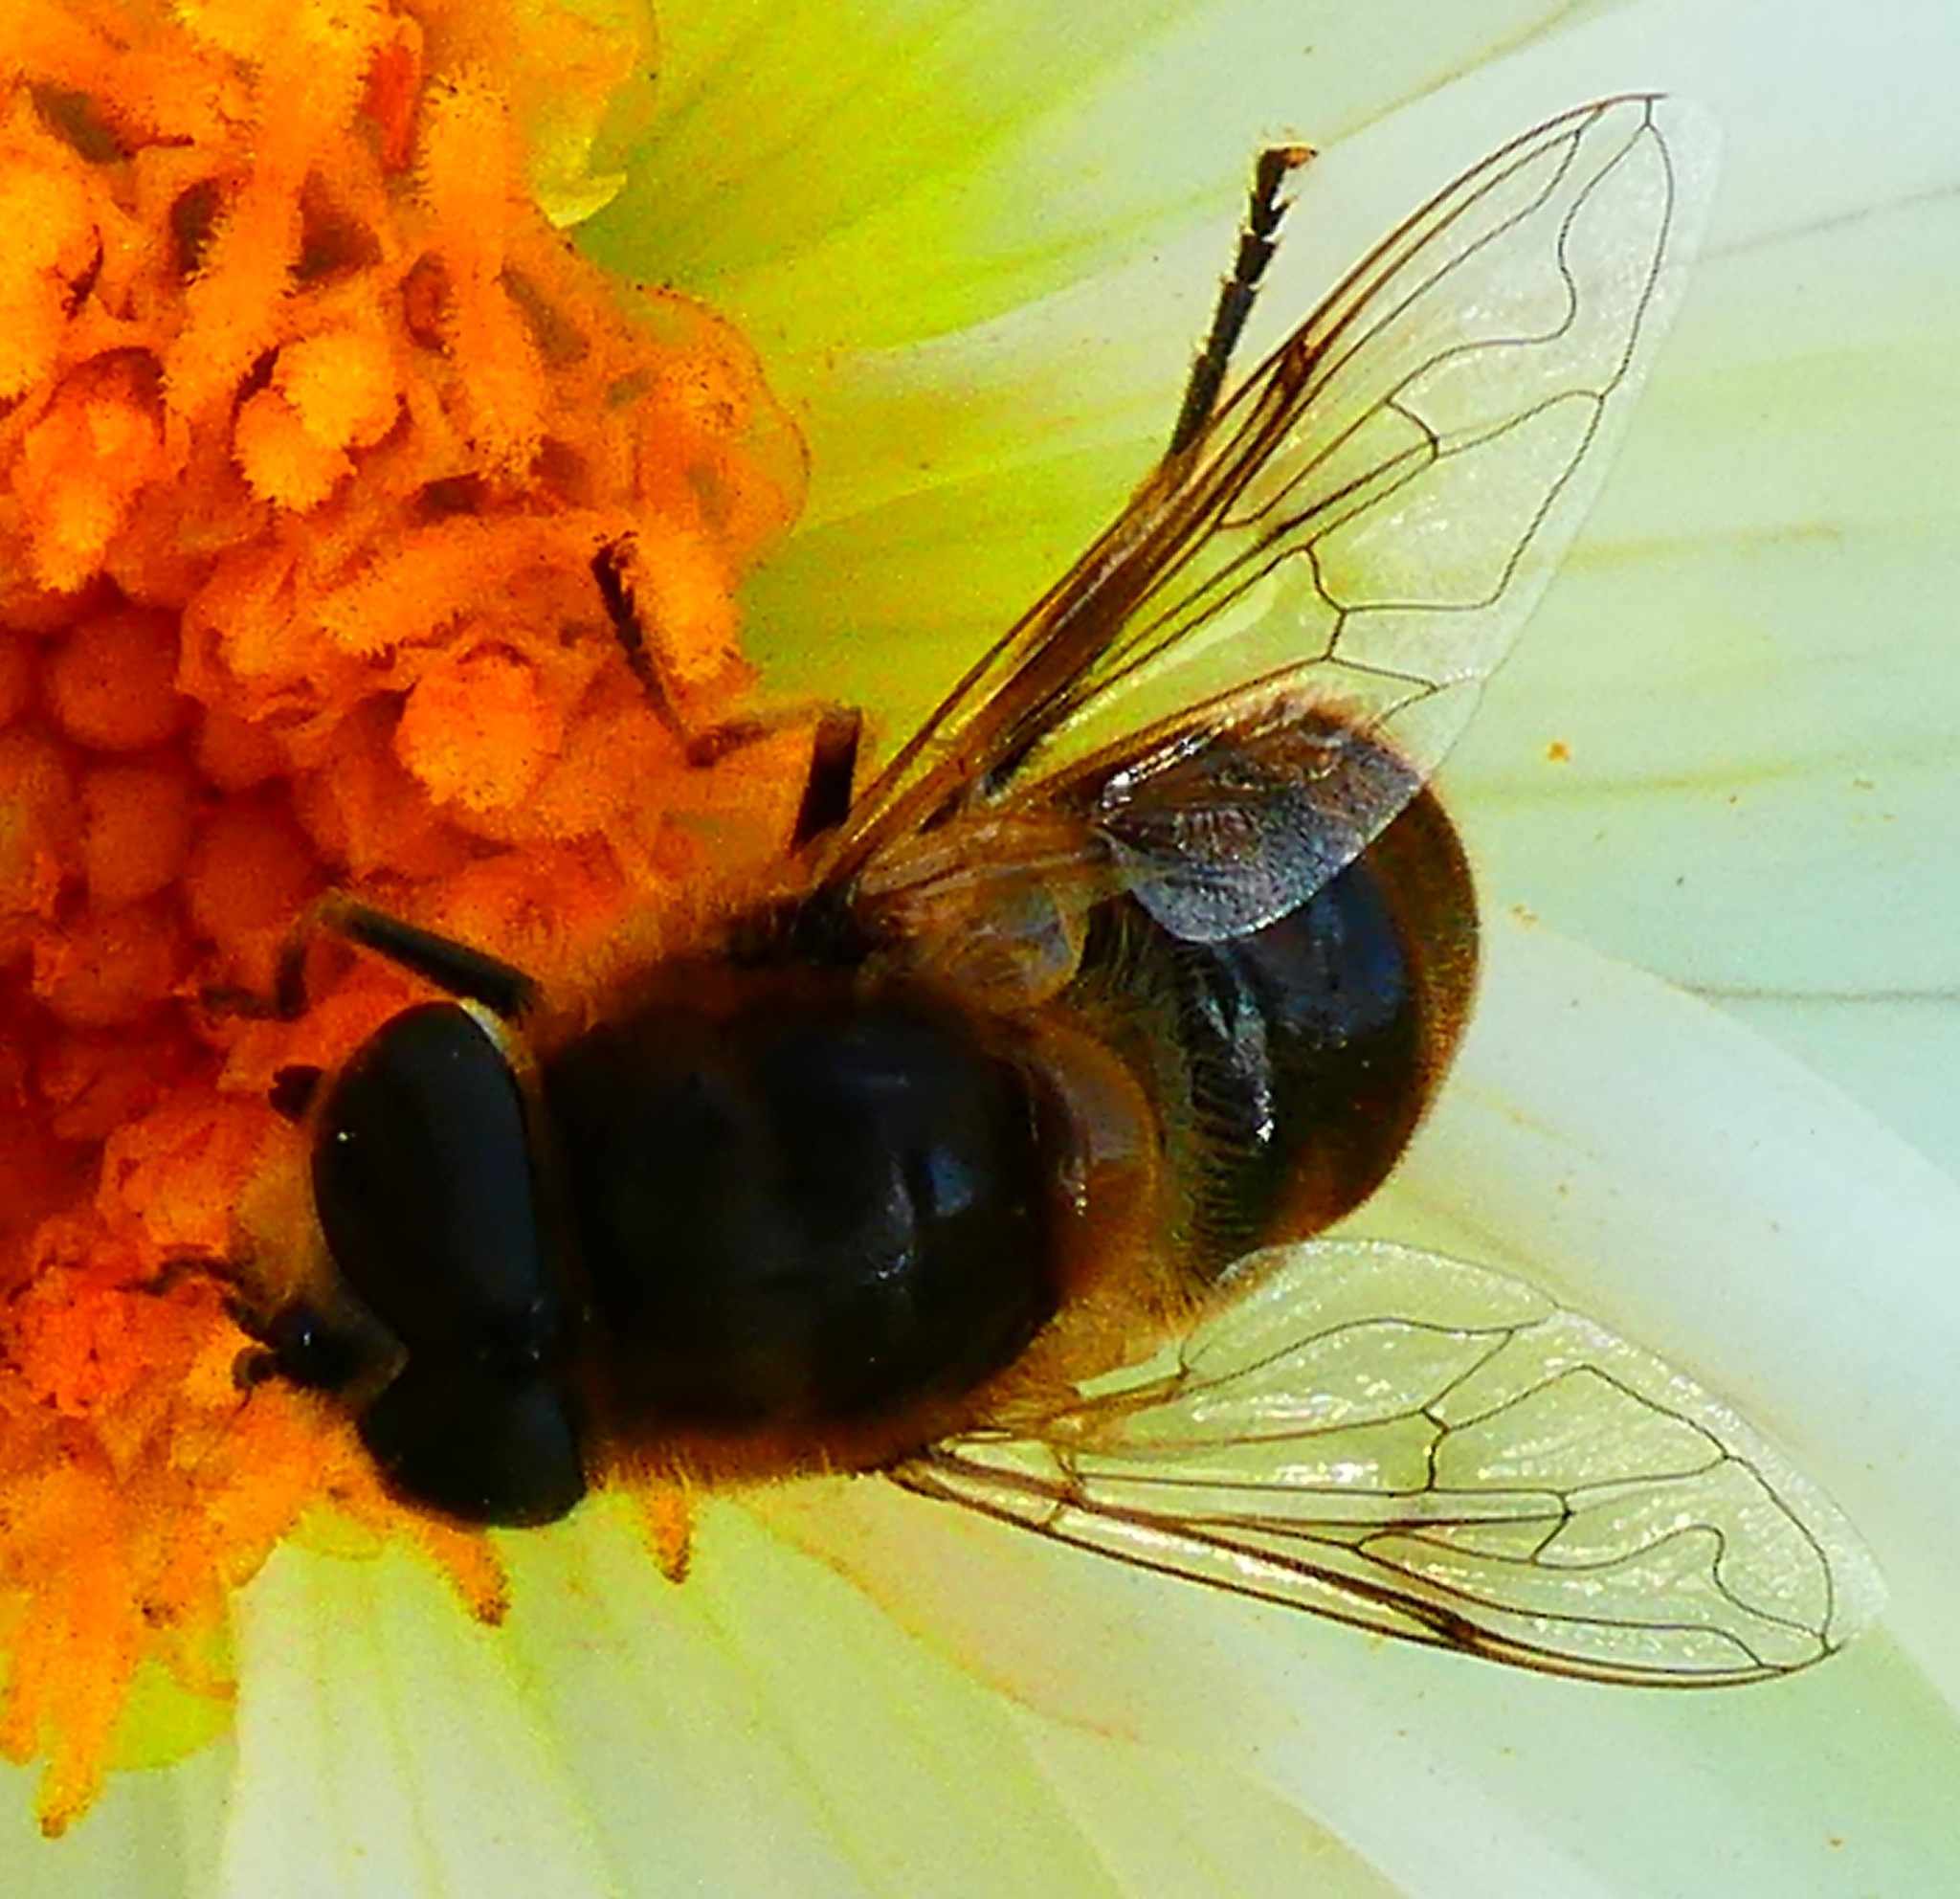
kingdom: Animalia
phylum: Arthropoda
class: Insecta
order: Diptera
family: Syrphidae
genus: Eristalis
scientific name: Eristalis tenax
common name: Drone fly
